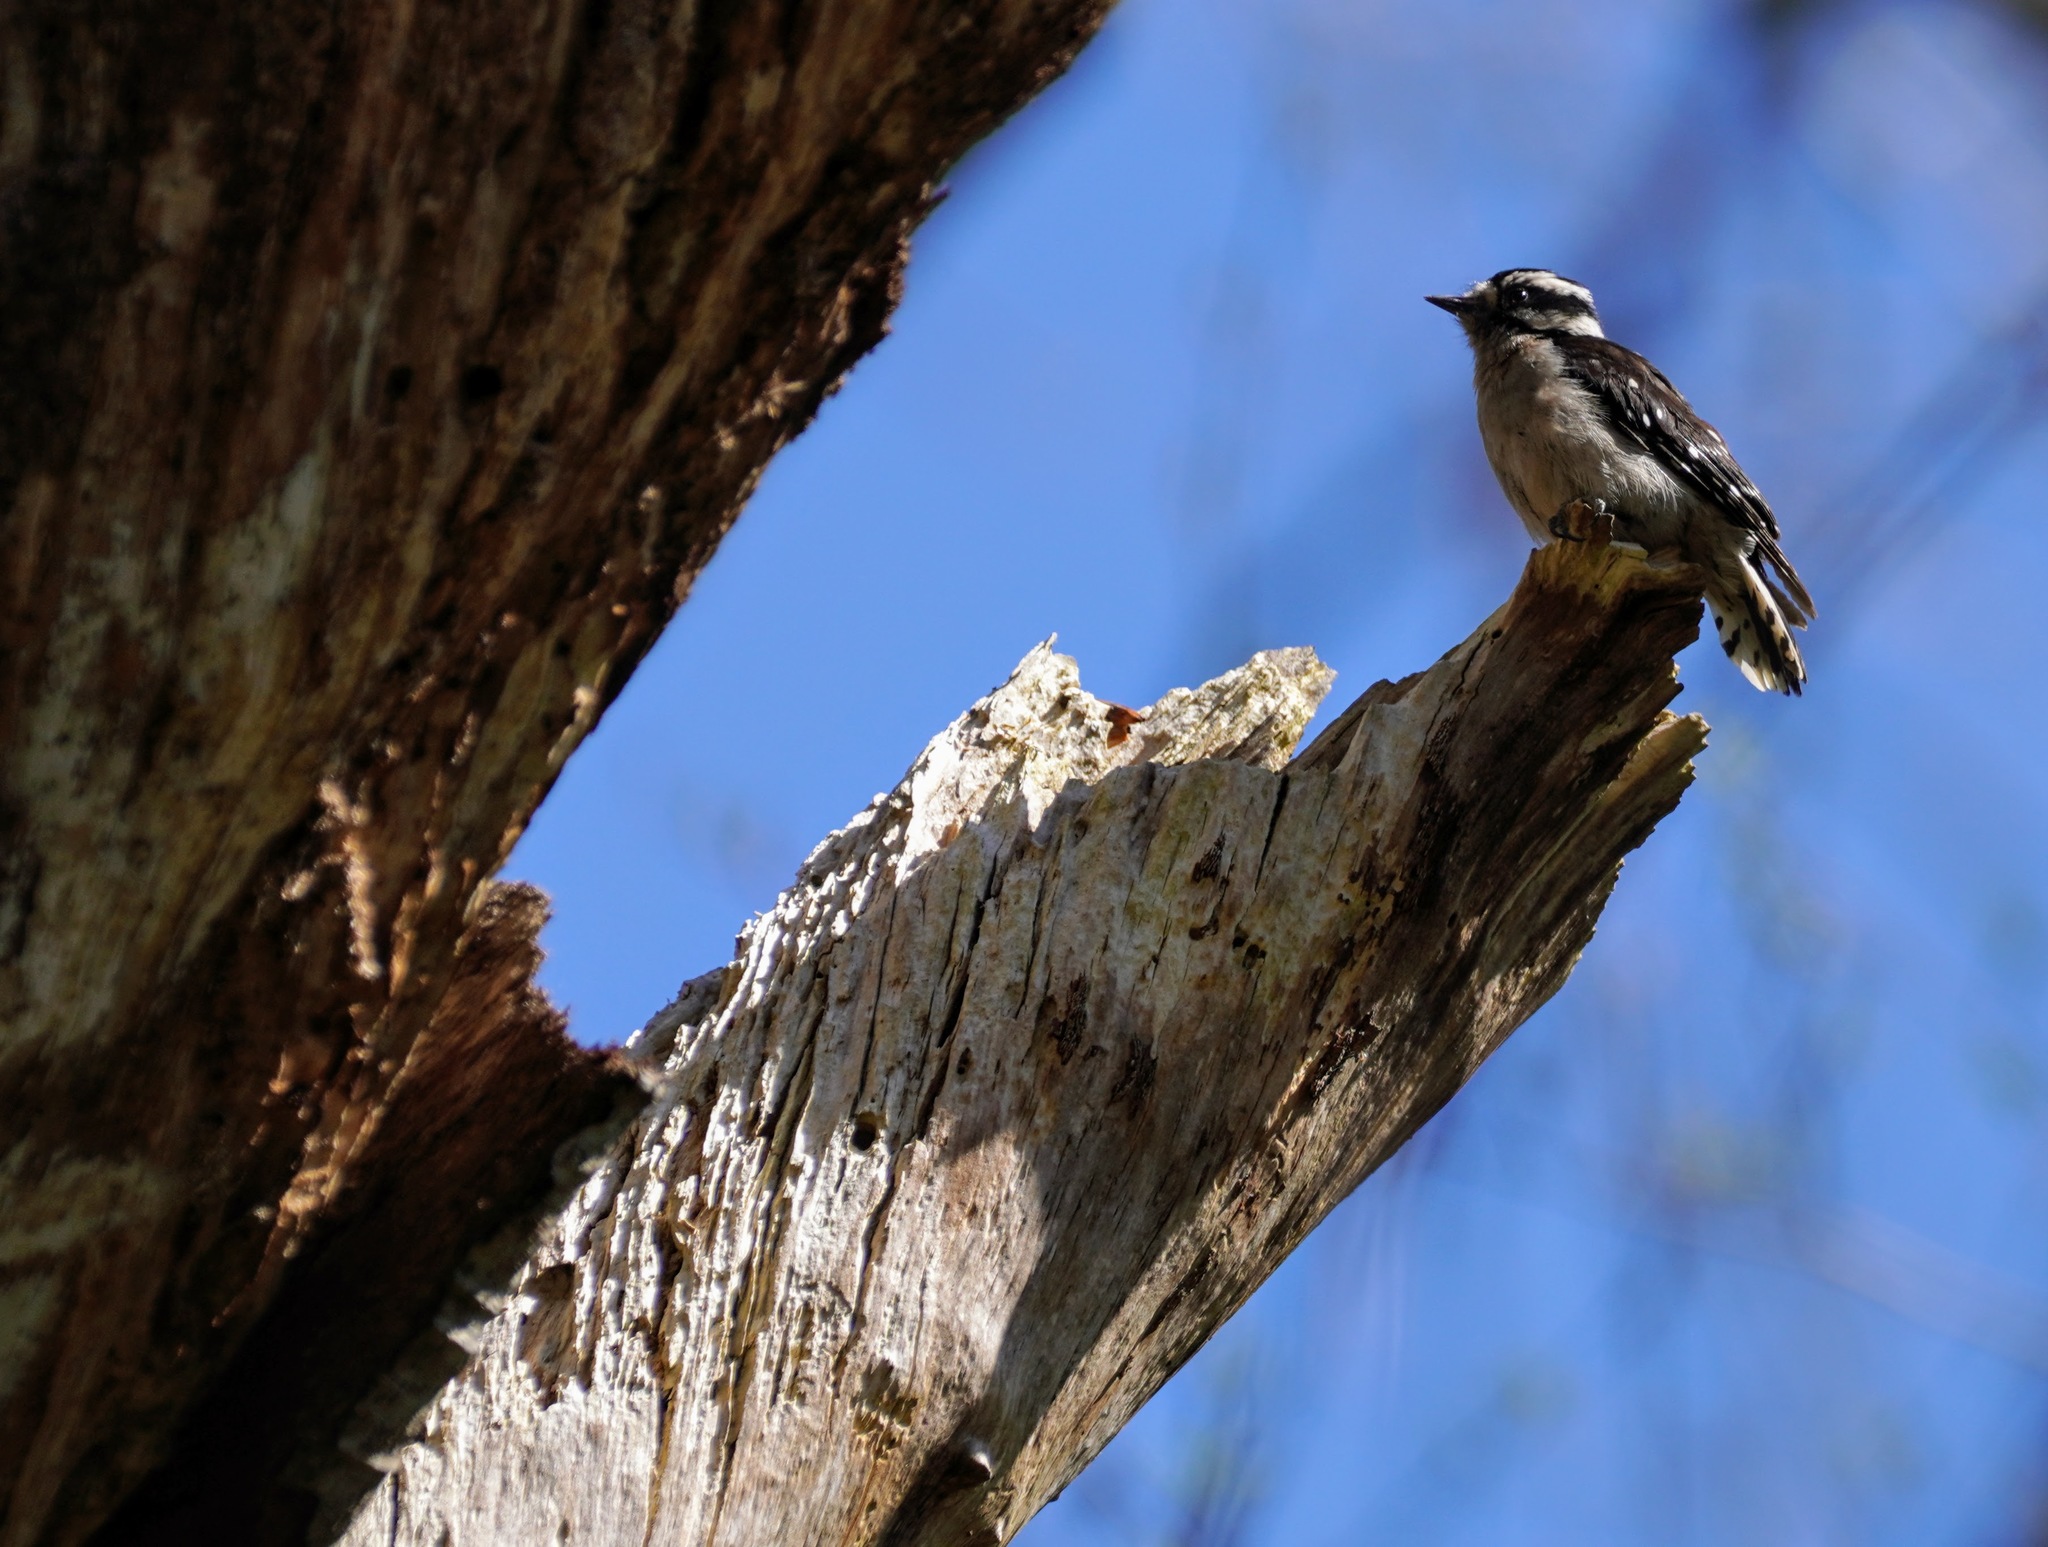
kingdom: Animalia
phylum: Chordata
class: Aves
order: Piciformes
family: Picidae
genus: Dryobates
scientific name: Dryobates pubescens
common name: Downy woodpecker
